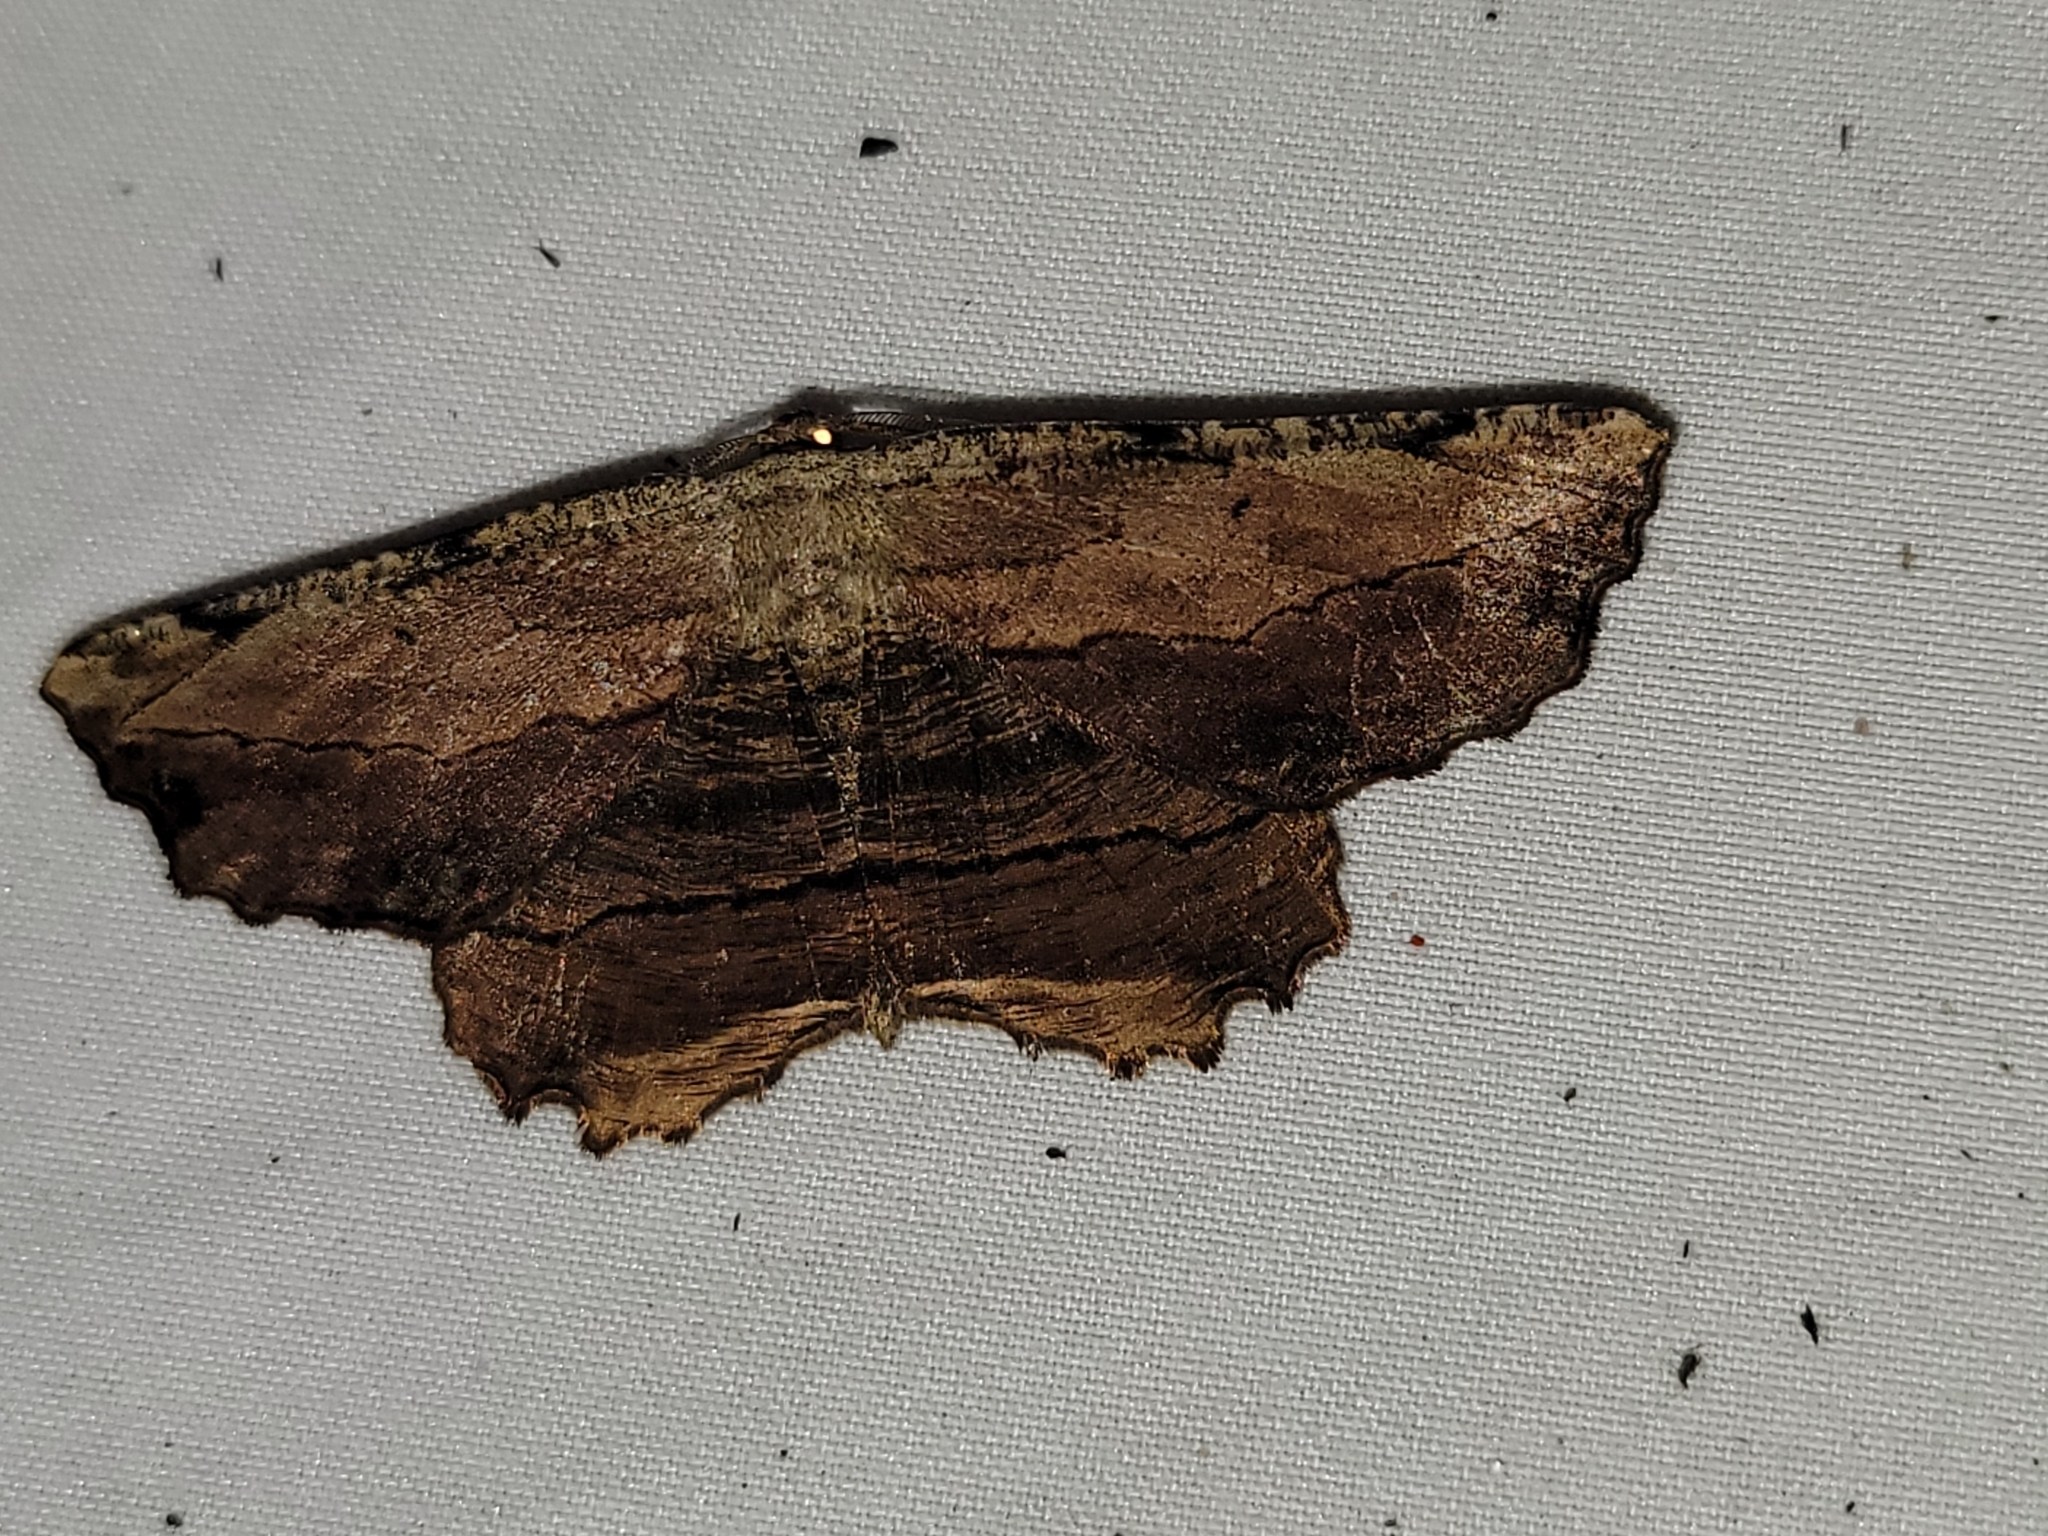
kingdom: Animalia
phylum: Arthropoda
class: Insecta
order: Lepidoptera
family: Geometridae
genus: Lytrosis
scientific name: Lytrosis unitaria
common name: Common lytrosis
